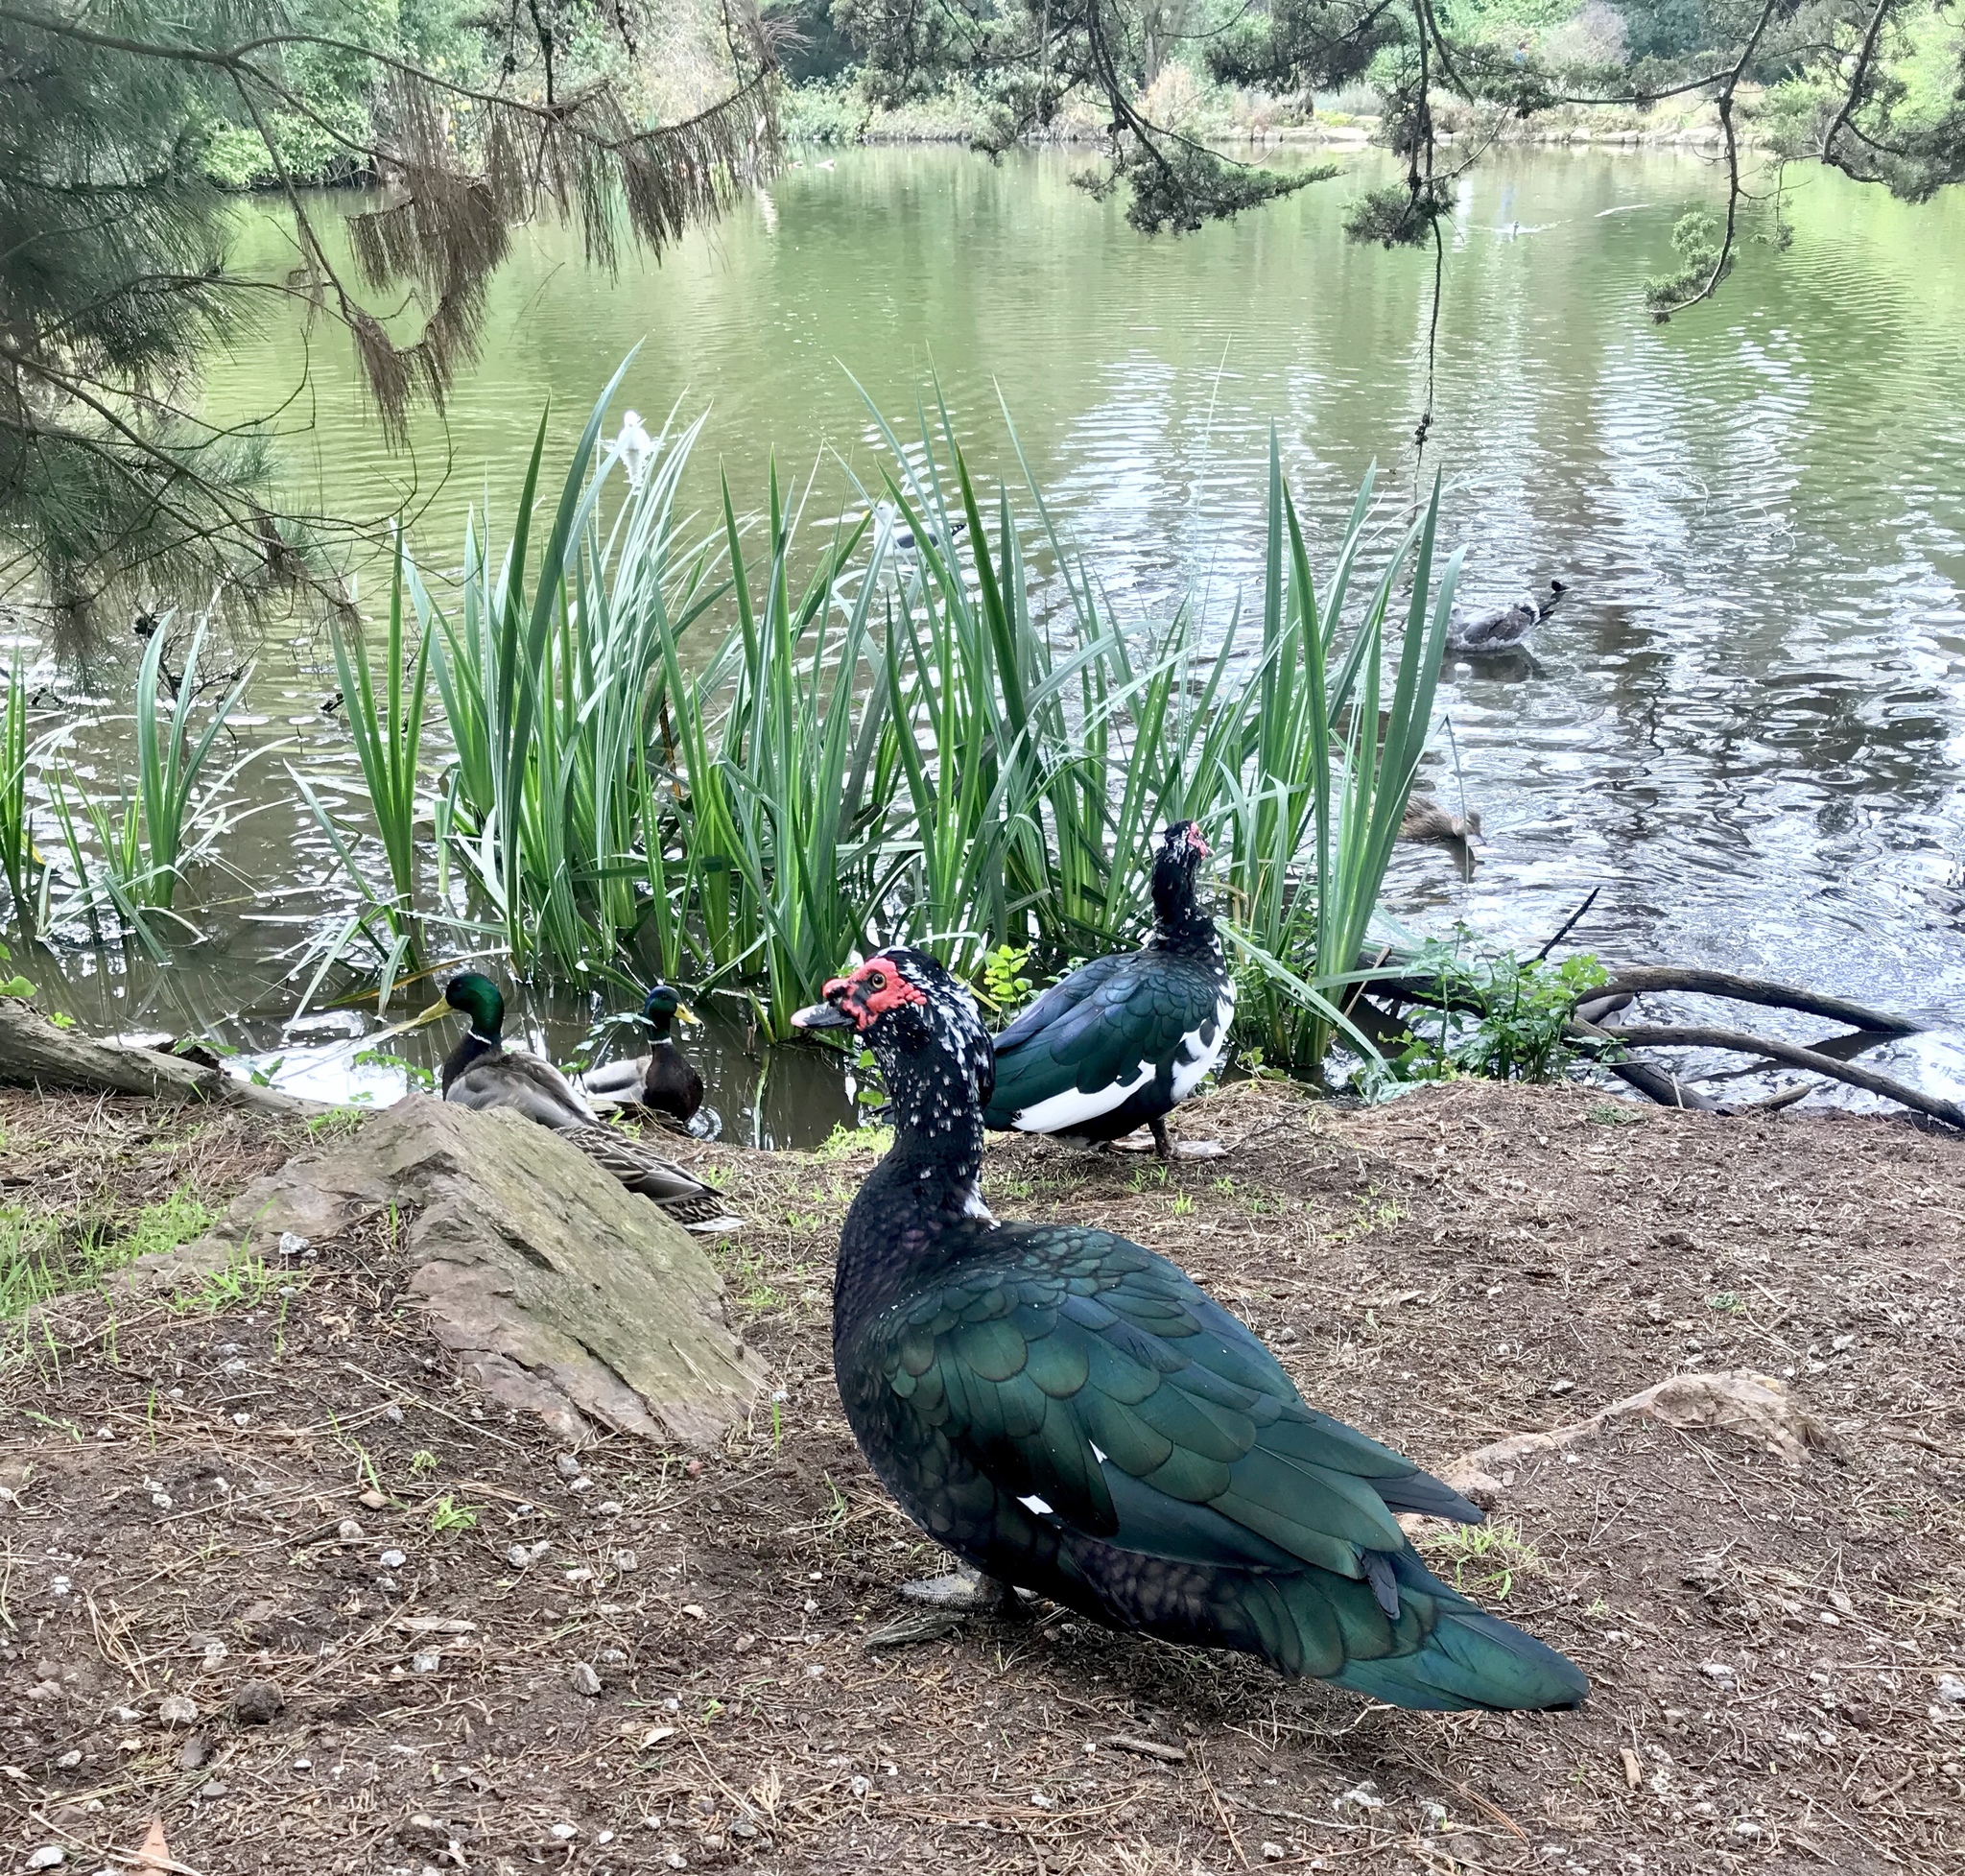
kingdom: Animalia
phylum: Chordata
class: Aves
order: Anseriformes
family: Anatidae
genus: Cairina
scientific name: Cairina moschata
